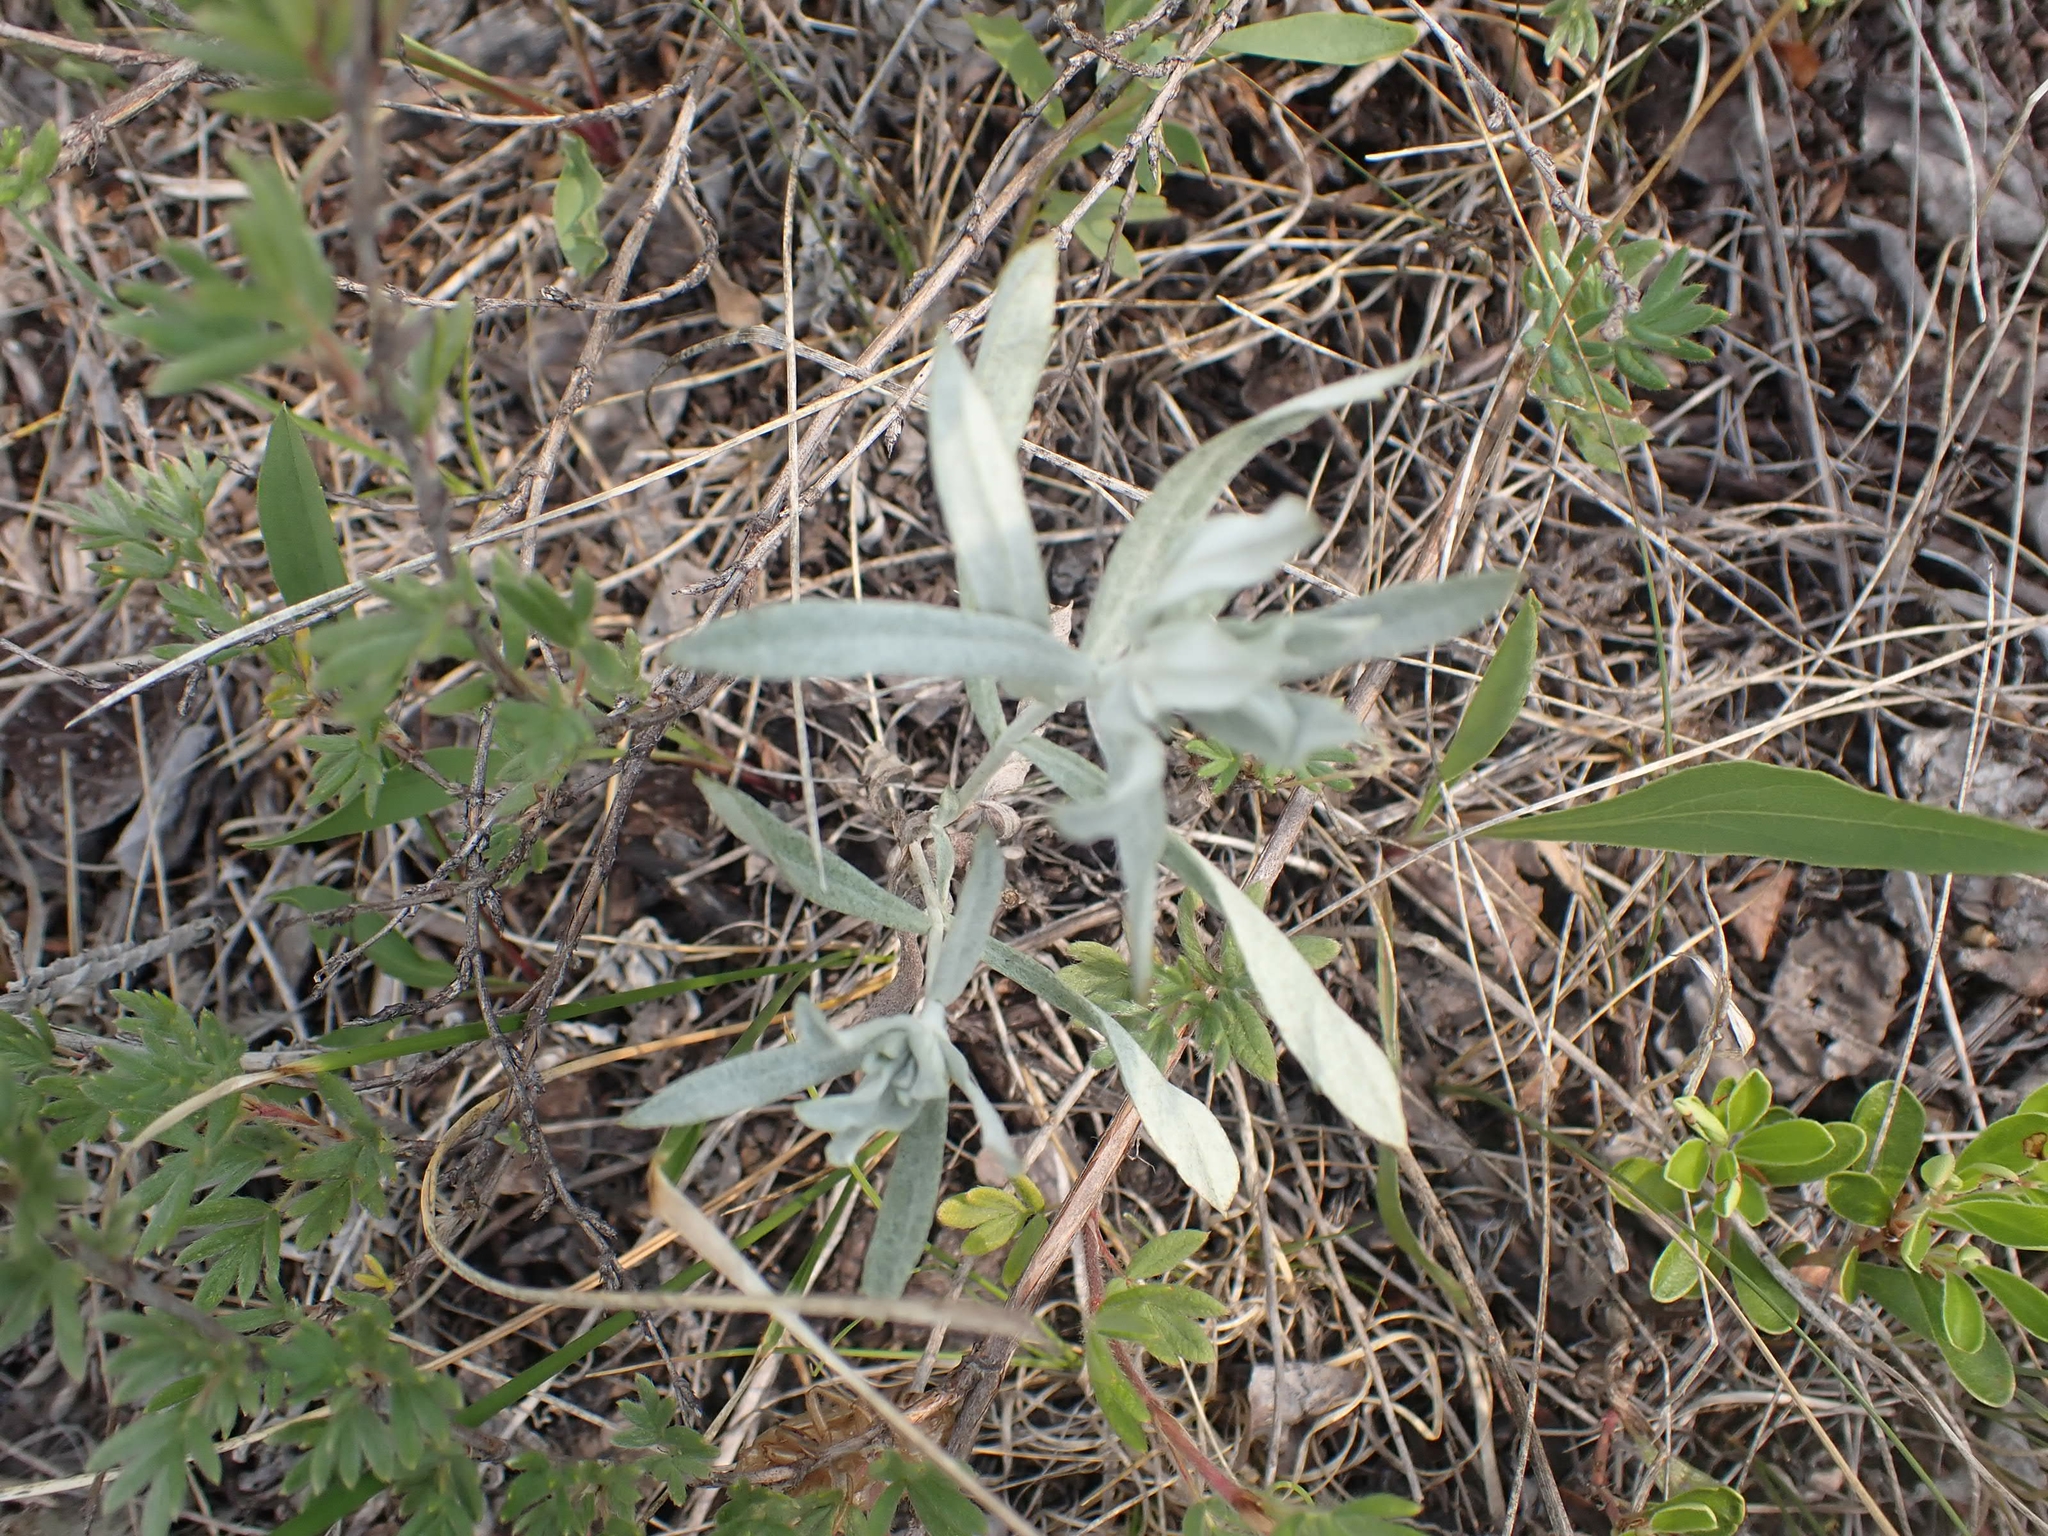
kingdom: Plantae
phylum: Tracheophyta
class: Magnoliopsida
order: Asterales
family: Asteraceae
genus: Artemisia
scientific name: Artemisia ludoviciana
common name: Western mugwort
